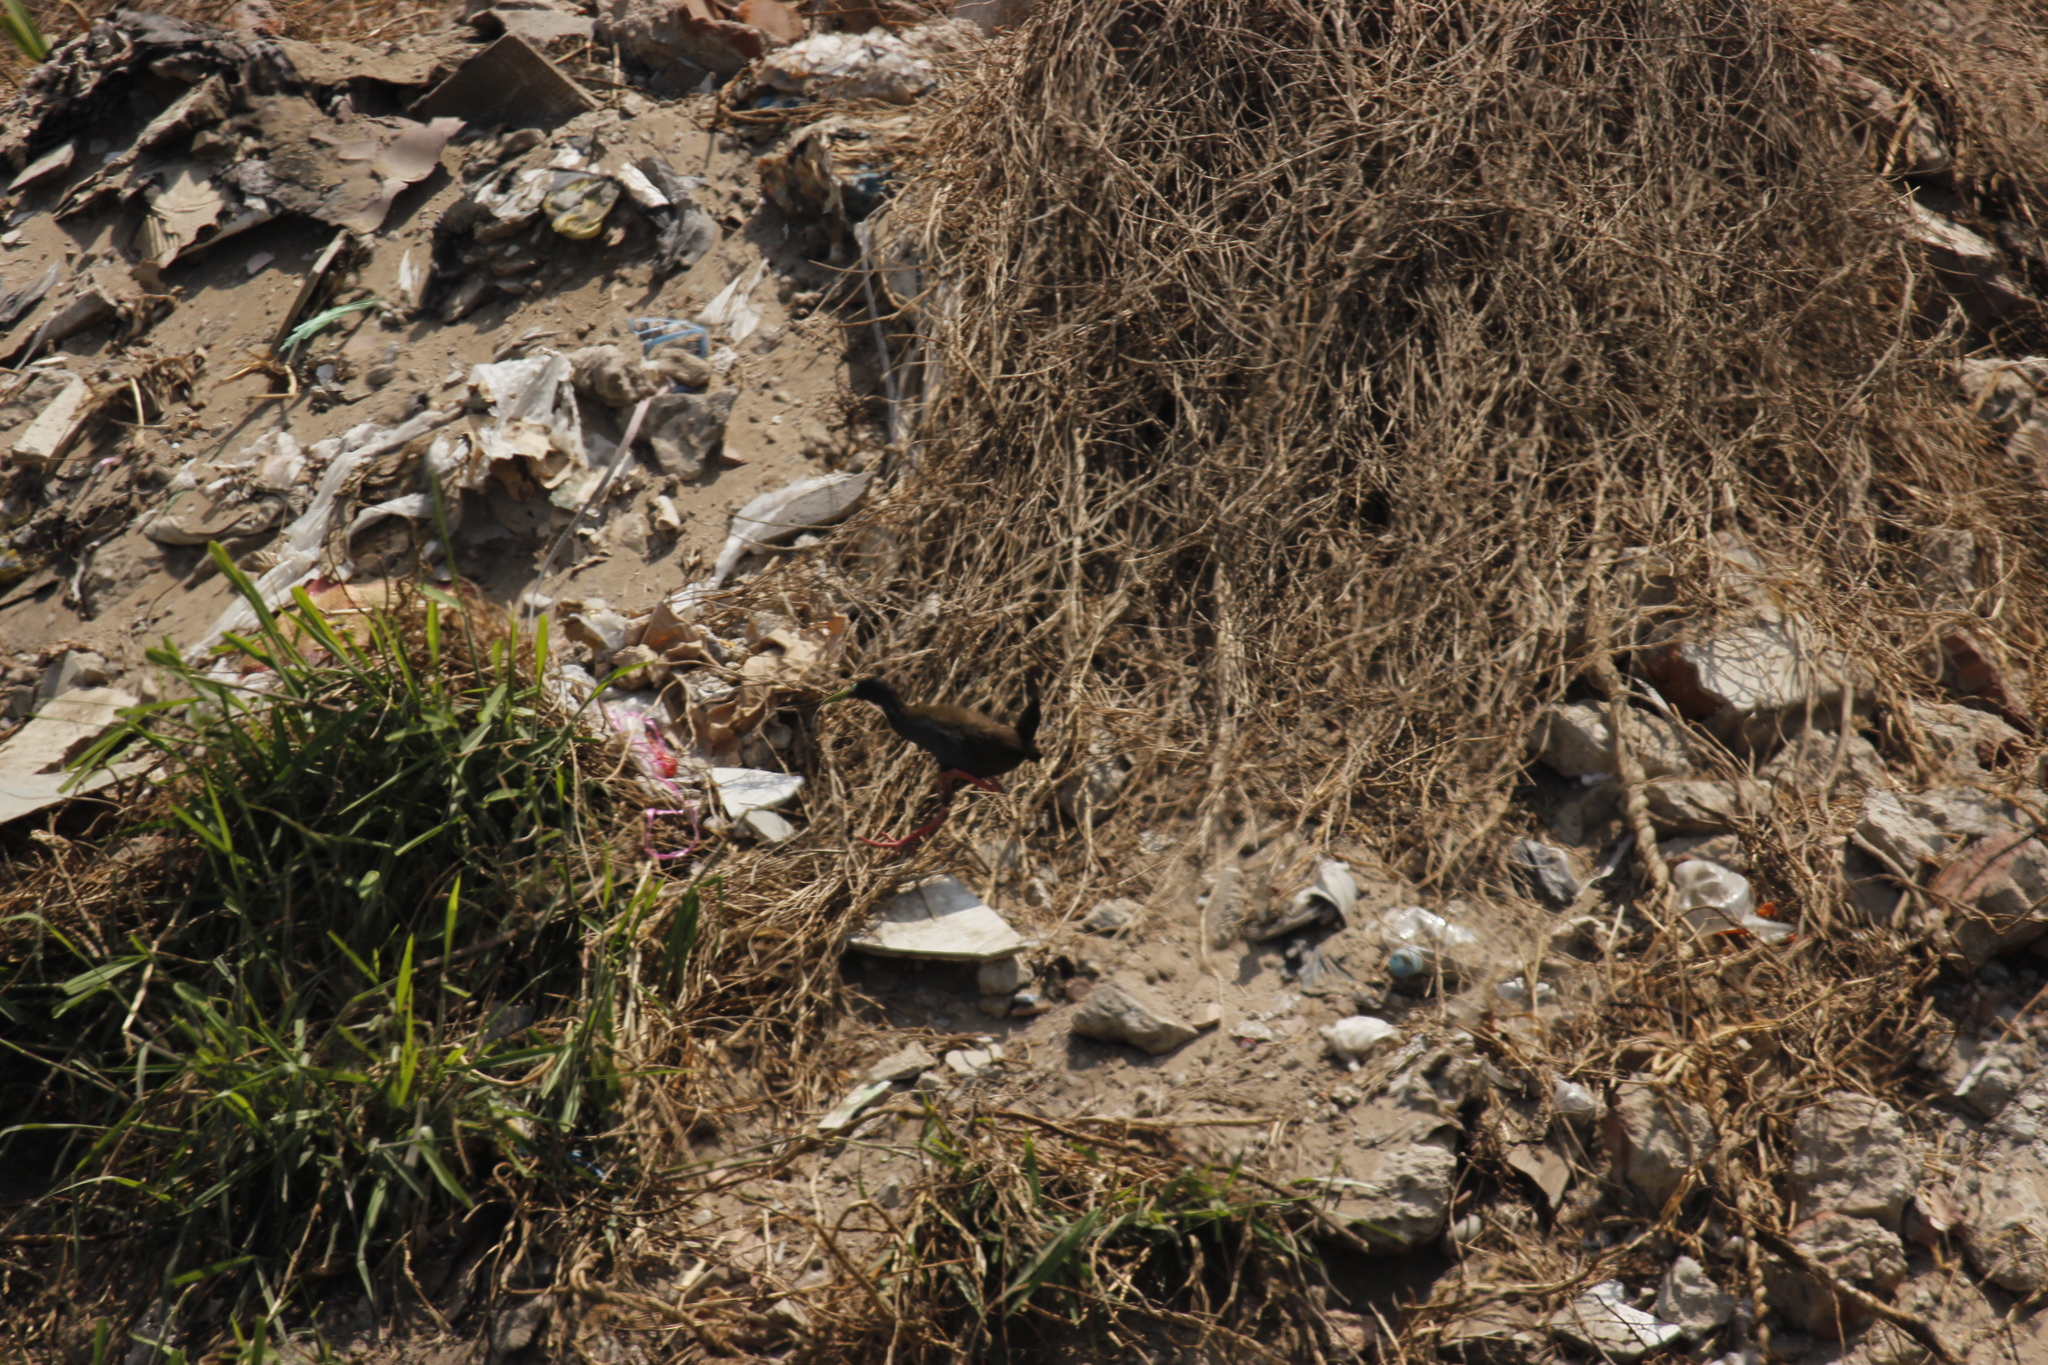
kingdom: Animalia
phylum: Chordata
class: Aves
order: Gruiformes
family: Rallidae
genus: Pardirallus
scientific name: Pardirallus sanguinolentus
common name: Plumbeous rail
